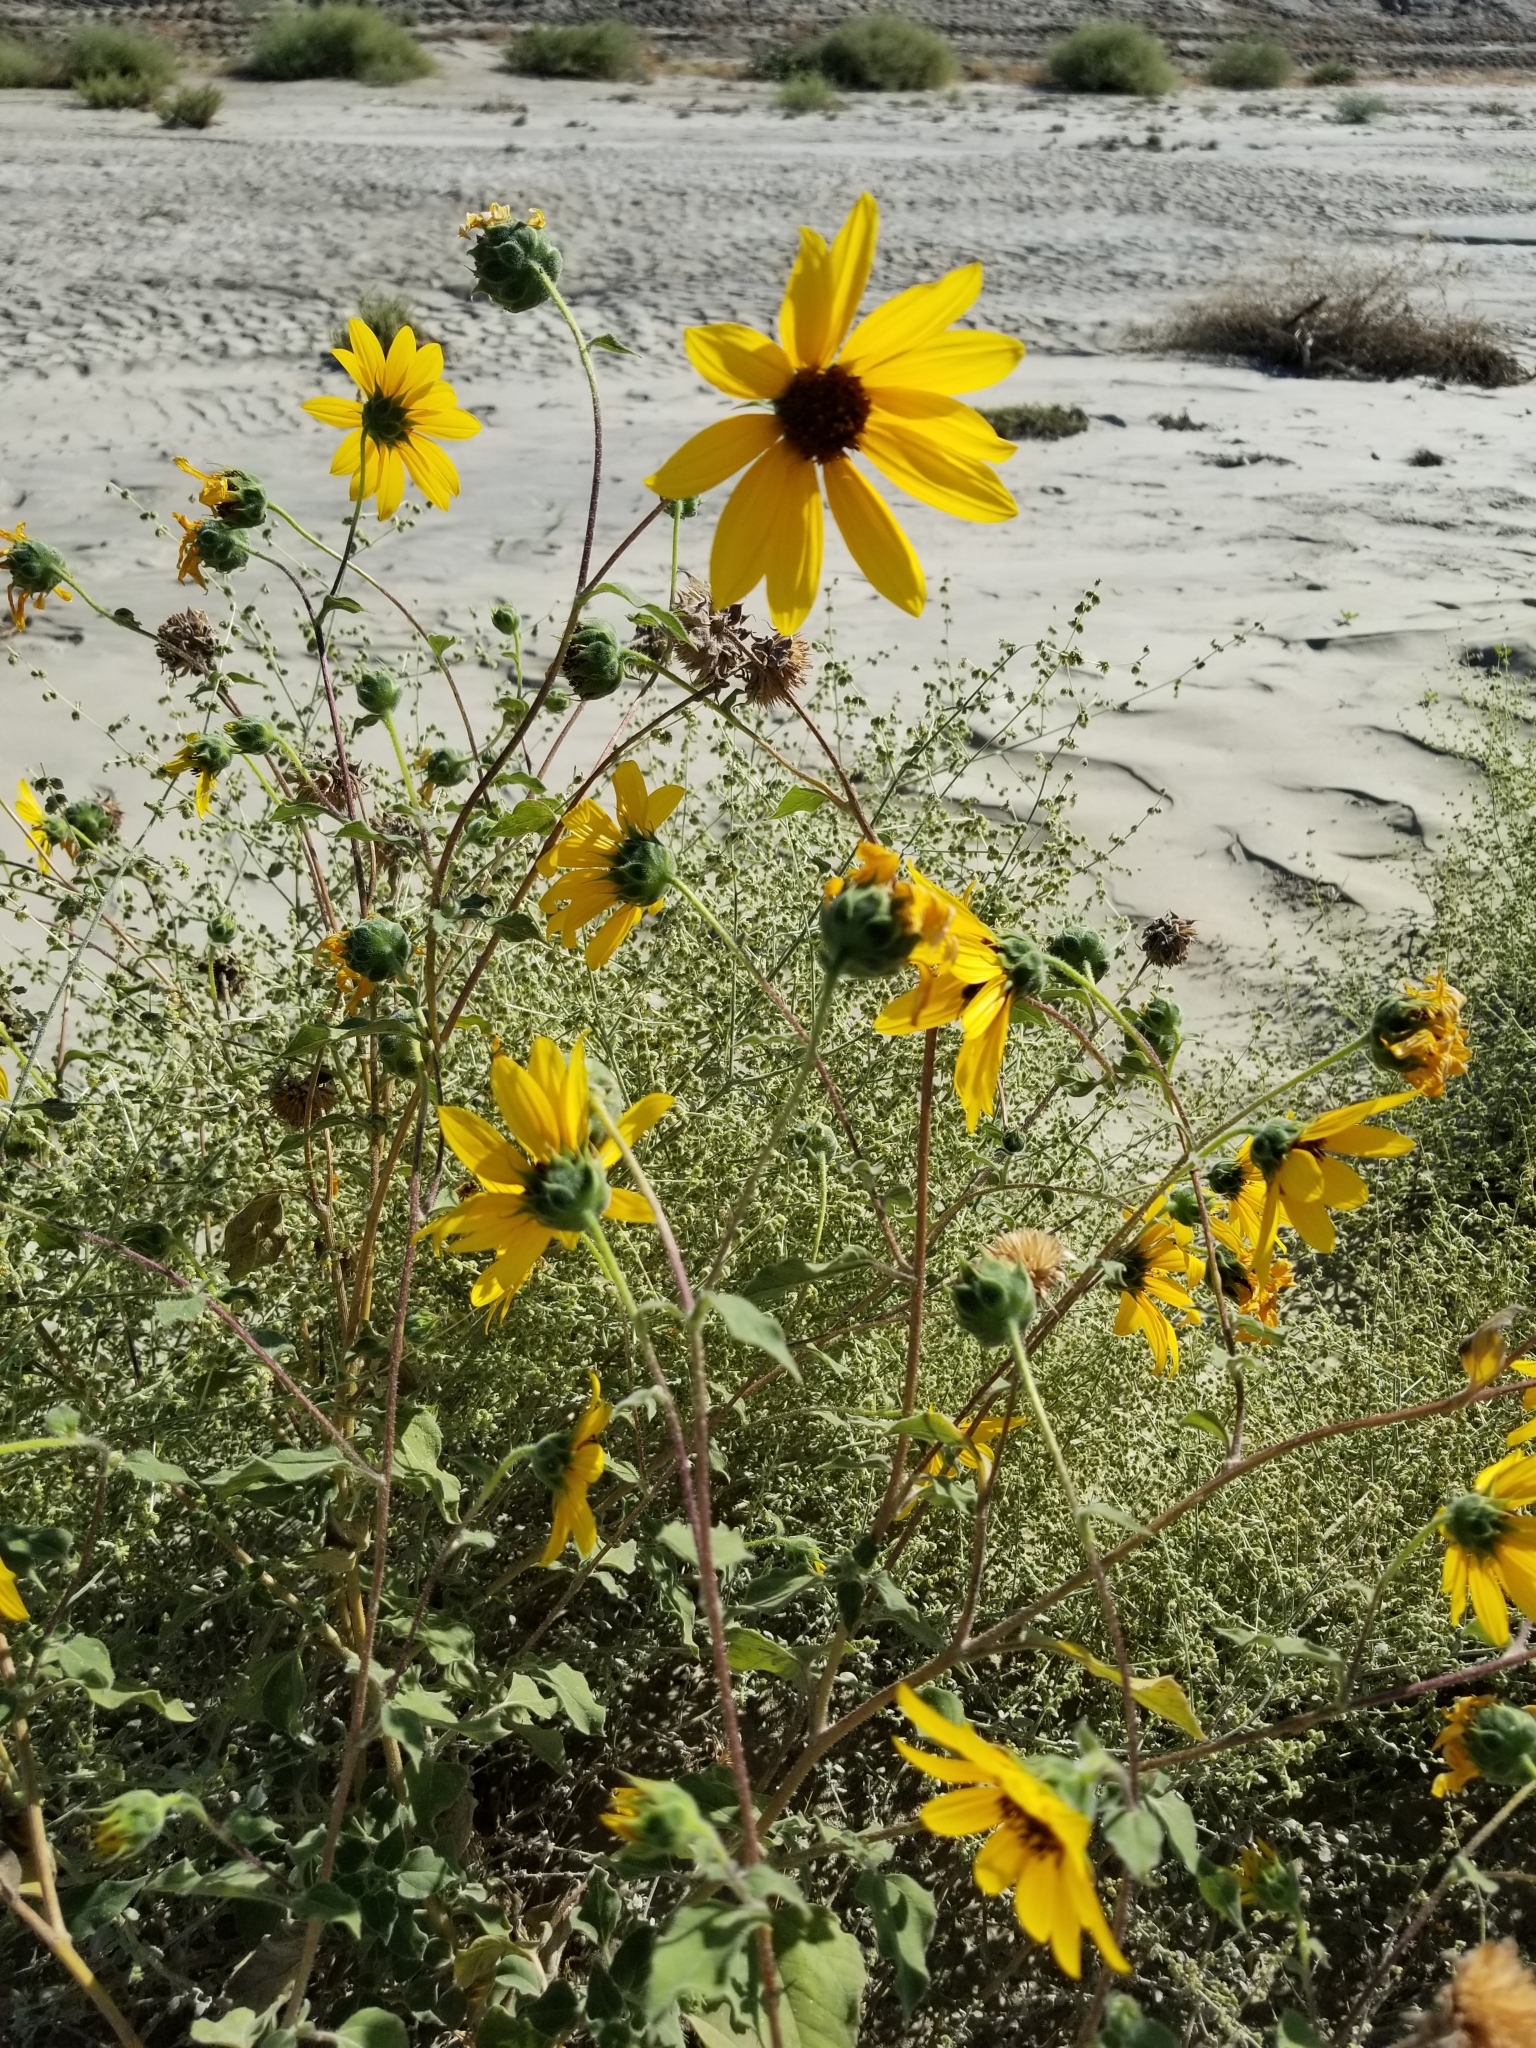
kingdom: Plantae
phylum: Tracheophyta
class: Magnoliopsida
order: Asterales
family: Asteraceae
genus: Helianthus
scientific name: Helianthus annuus
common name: Sunflower
